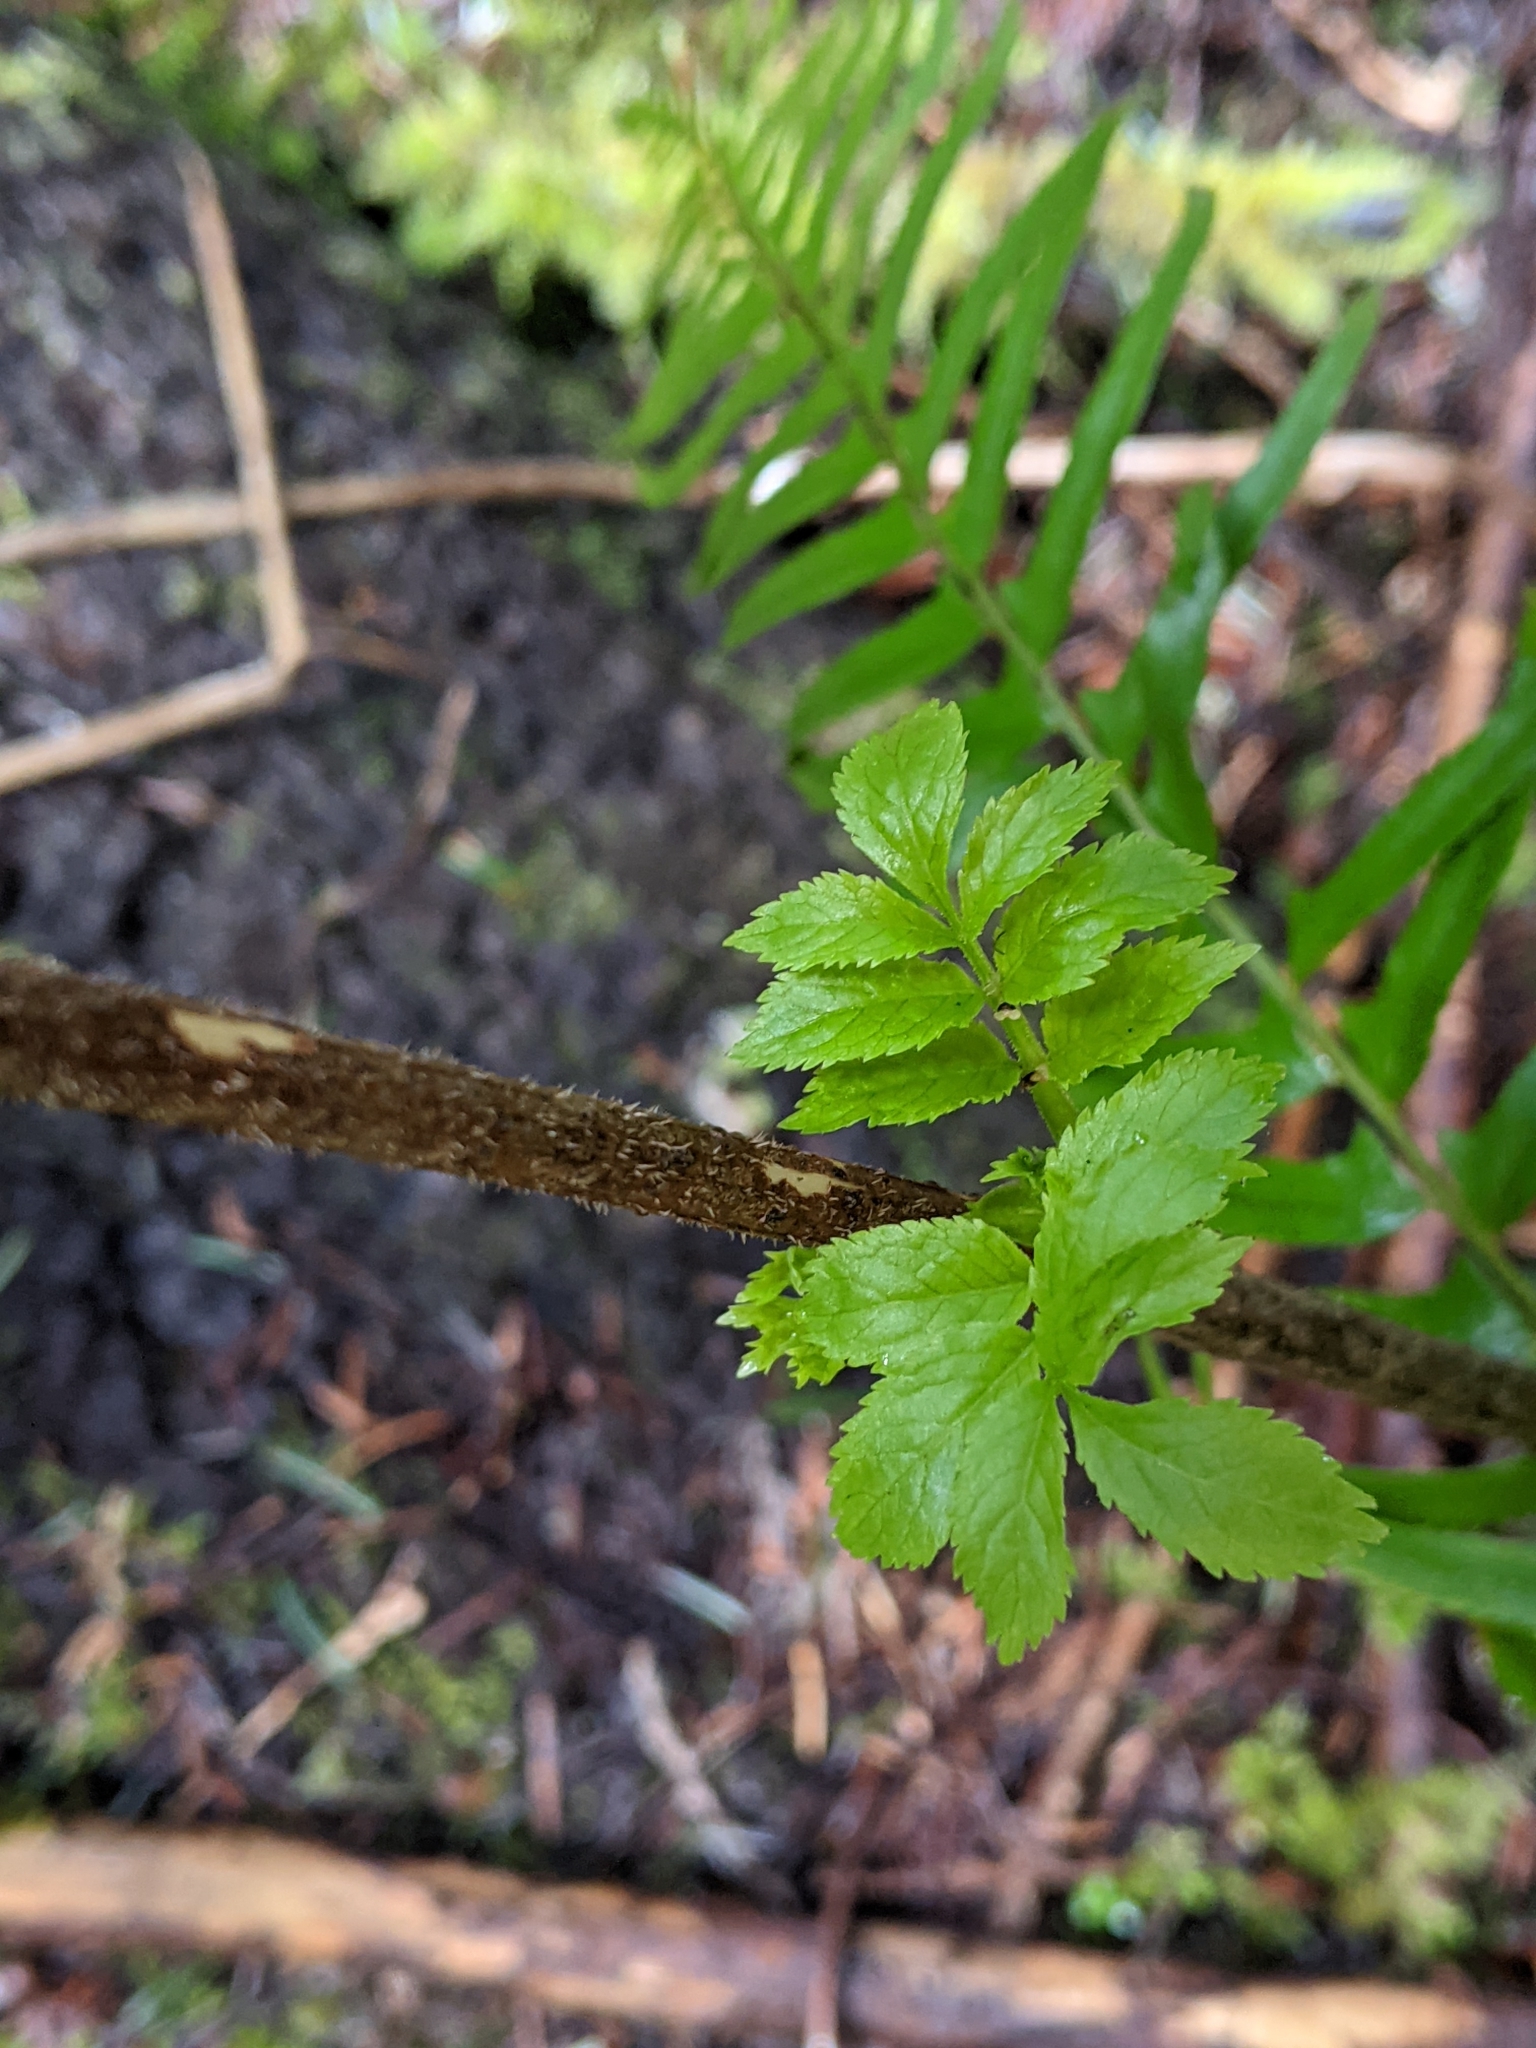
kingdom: Plantae
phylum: Tracheophyta
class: Magnoliopsida
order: Dipsacales
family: Viburnaceae
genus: Sambucus
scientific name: Sambucus racemosa
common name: Red-berried elder
